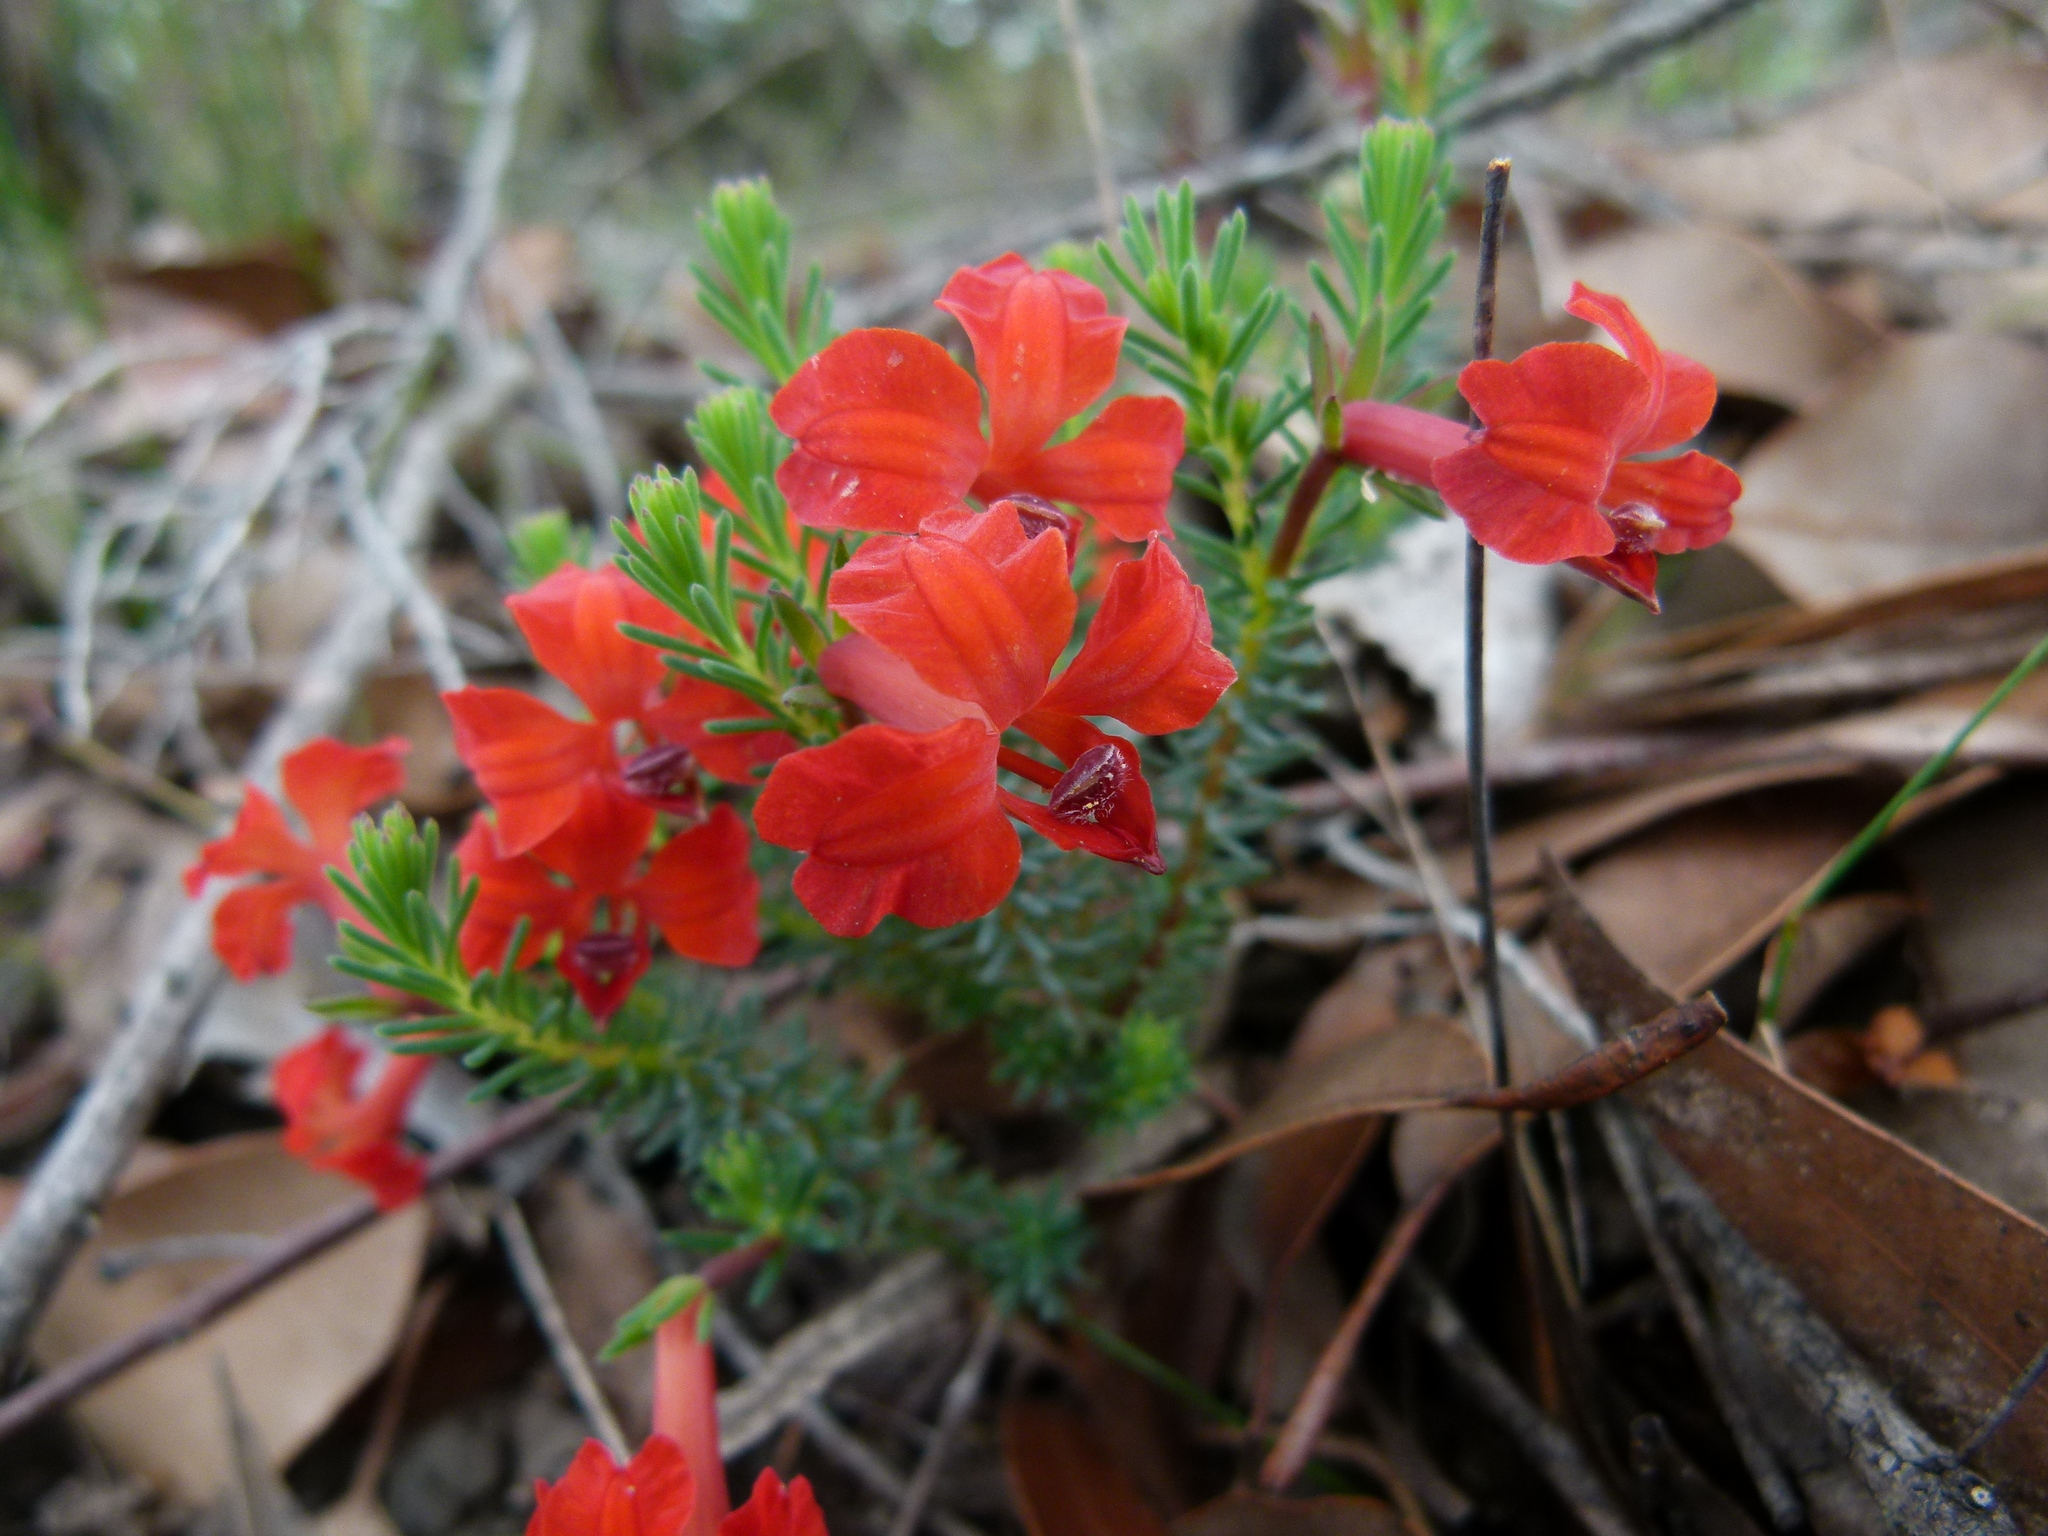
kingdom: Plantae
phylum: Tracheophyta
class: Magnoliopsida
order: Asterales
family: Goodeniaceae
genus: Lechenaultia
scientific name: Lechenaultia formosa
